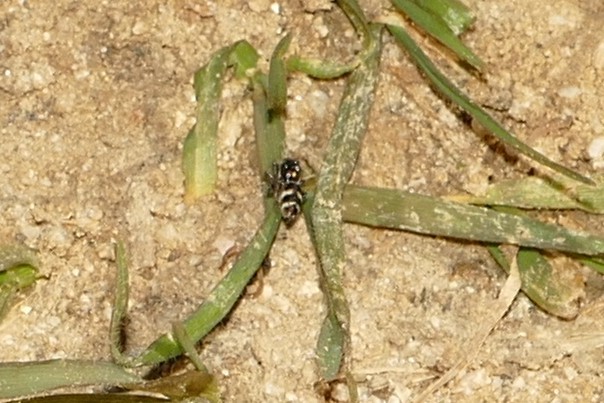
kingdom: Animalia
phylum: Arthropoda
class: Arachnida
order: Araneae
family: Salticidae
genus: Salticus
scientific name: Salticus propinquus
